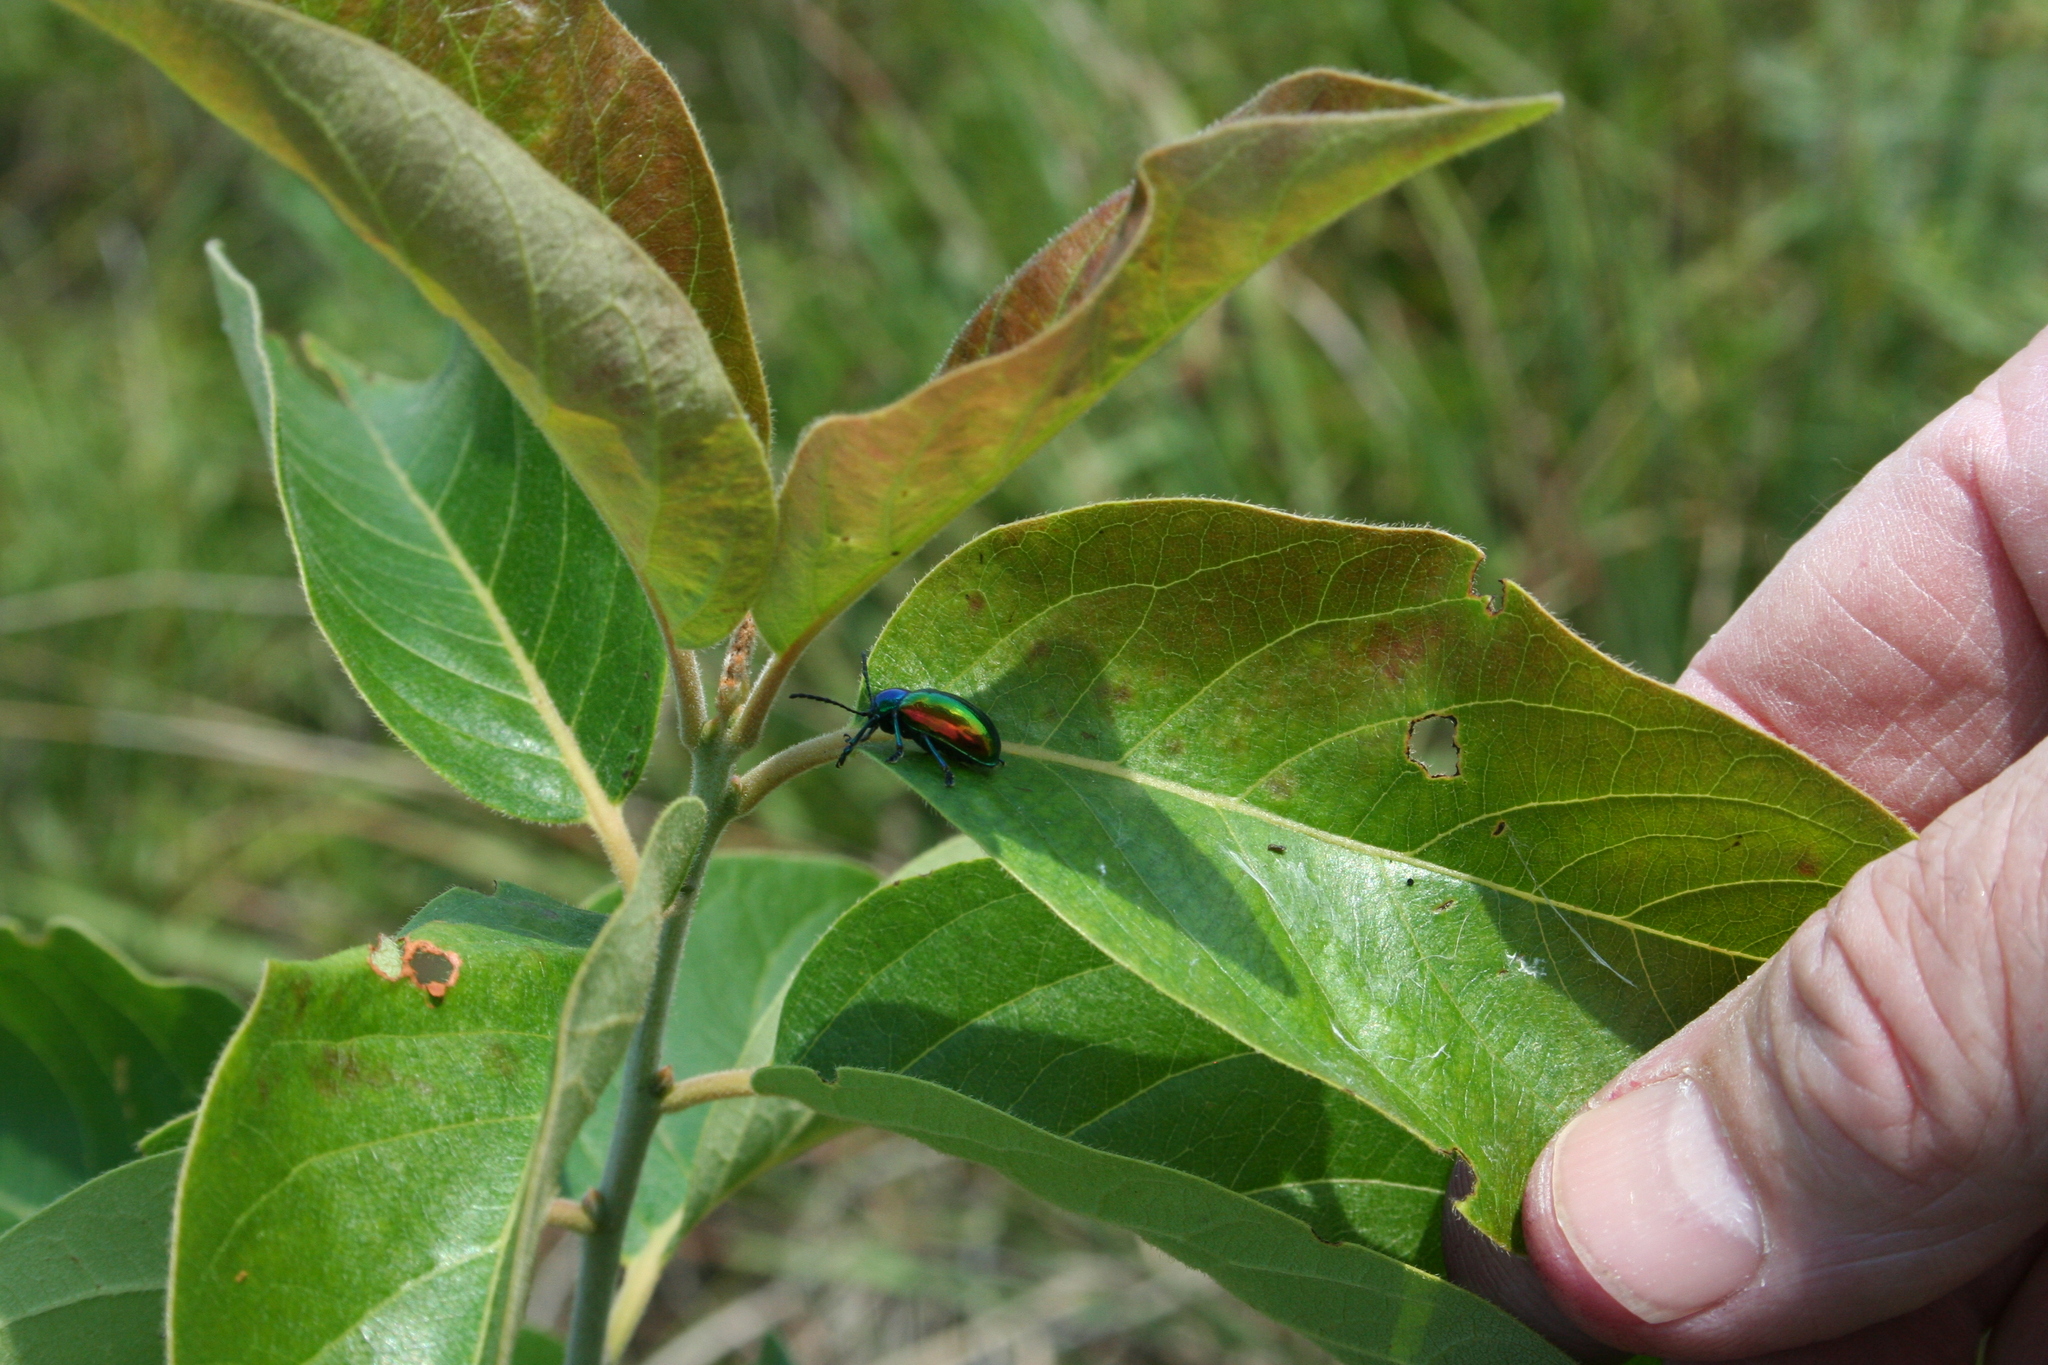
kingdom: Animalia
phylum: Arthropoda
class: Insecta
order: Coleoptera
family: Chrysomelidae
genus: Chrysochus
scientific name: Chrysochus auratus
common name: Dogbane leaf beetle
